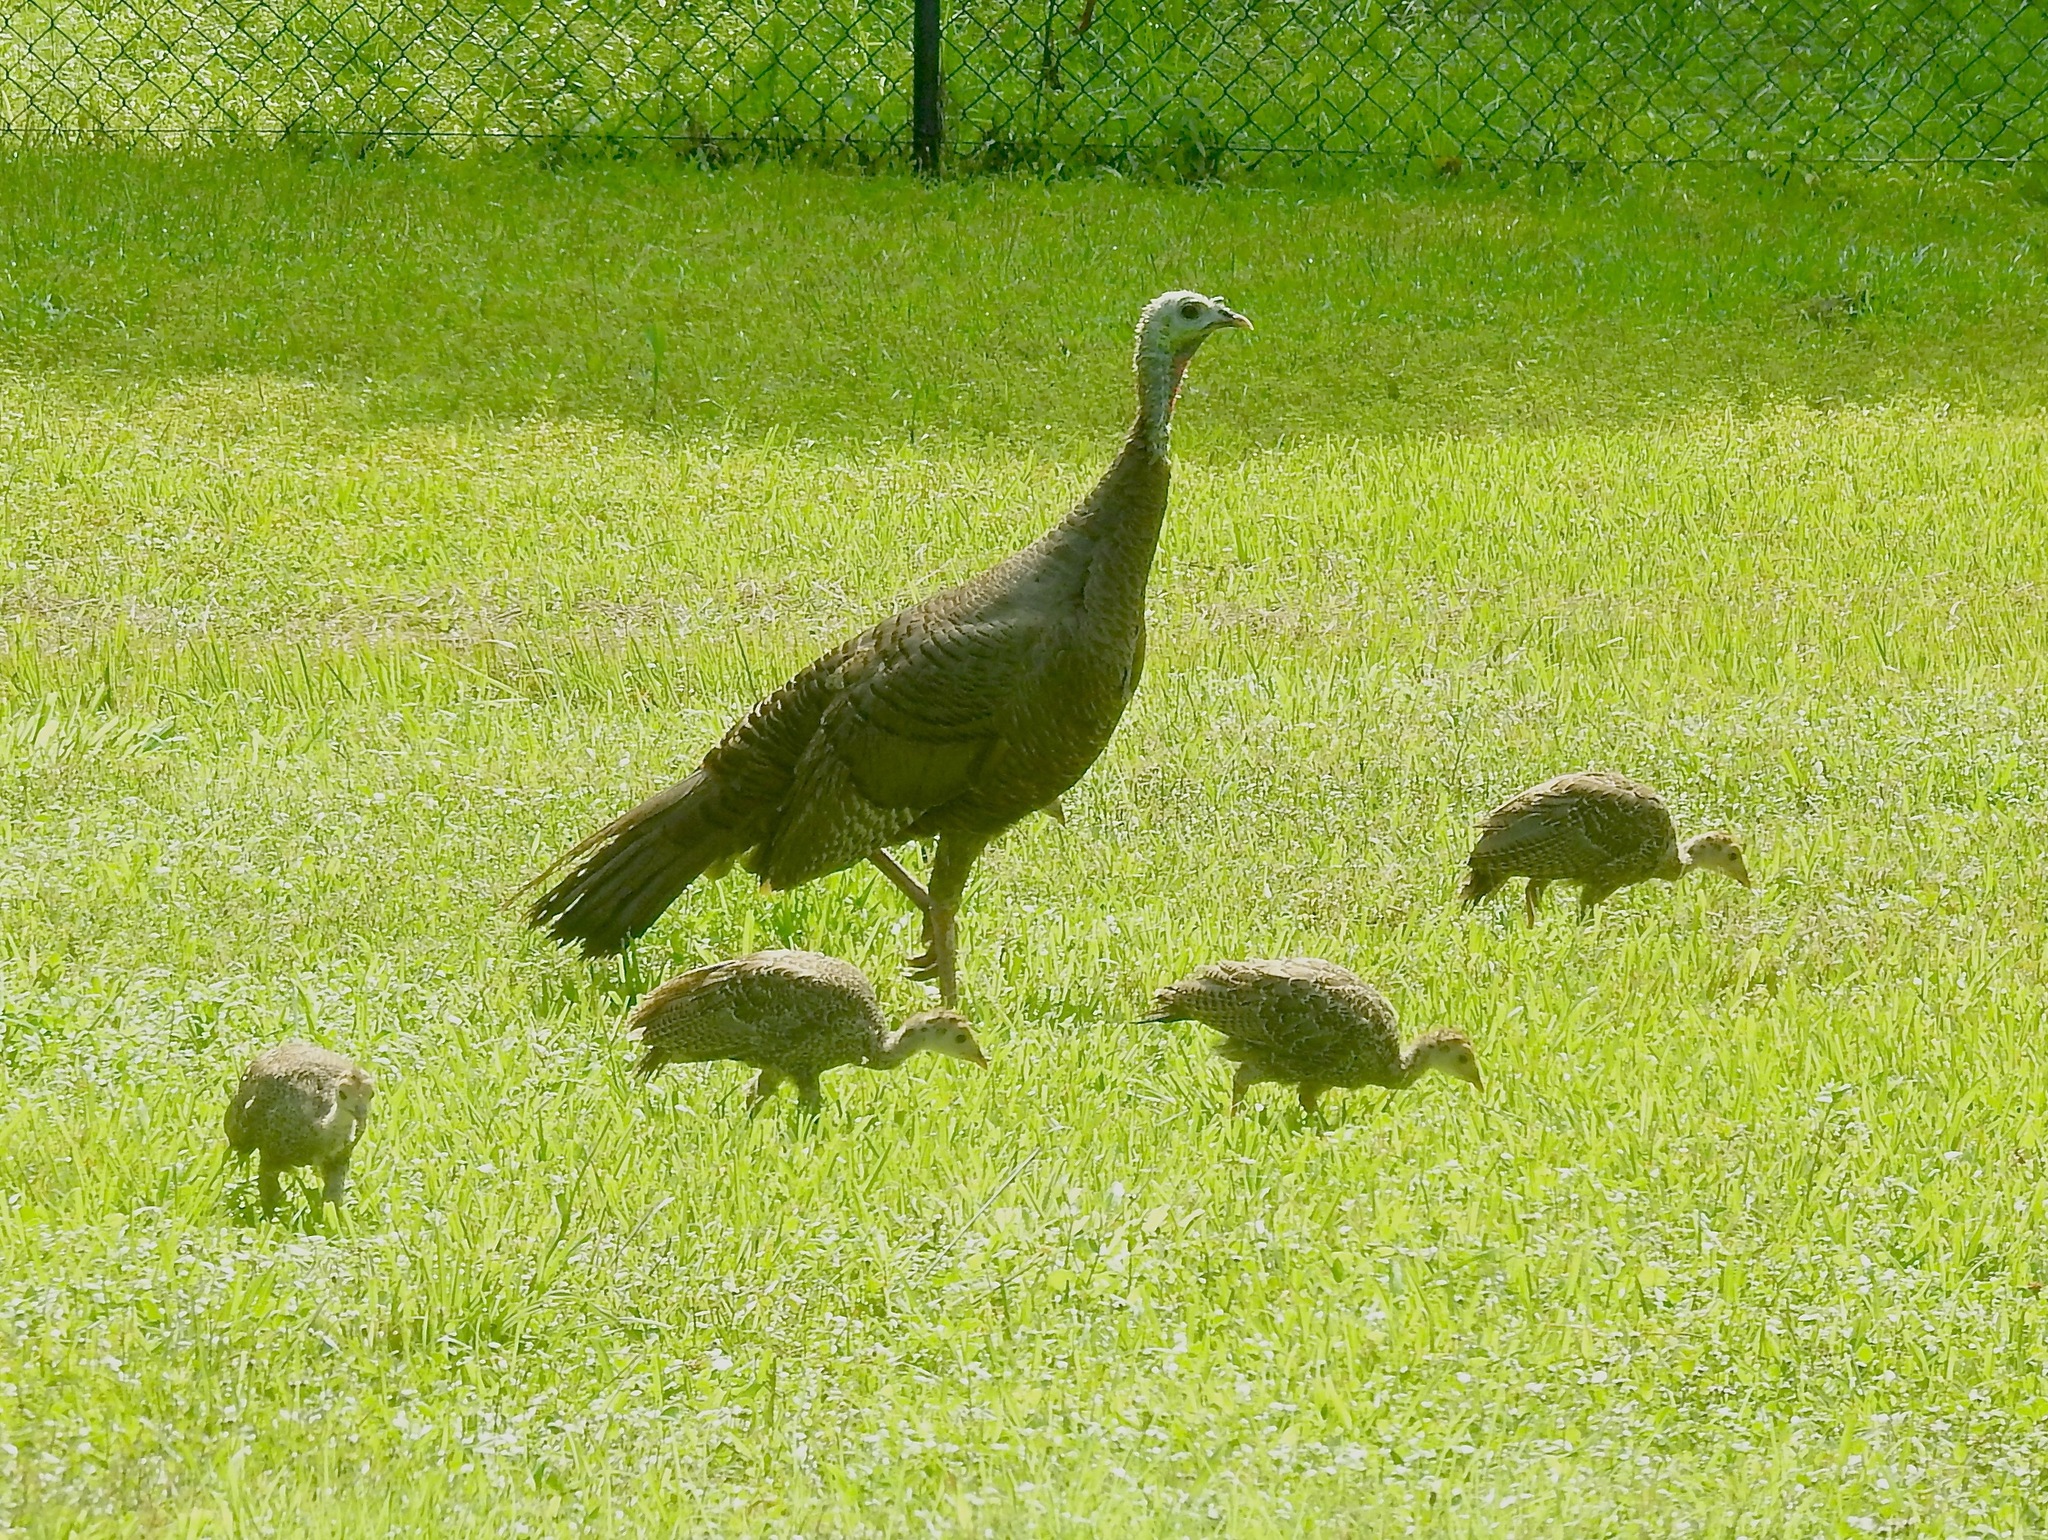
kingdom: Animalia
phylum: Chordata
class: Aves
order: Galliformes
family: Phasianidae
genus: Meleagris
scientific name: Meleagris gallopavo
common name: Wild turkey
